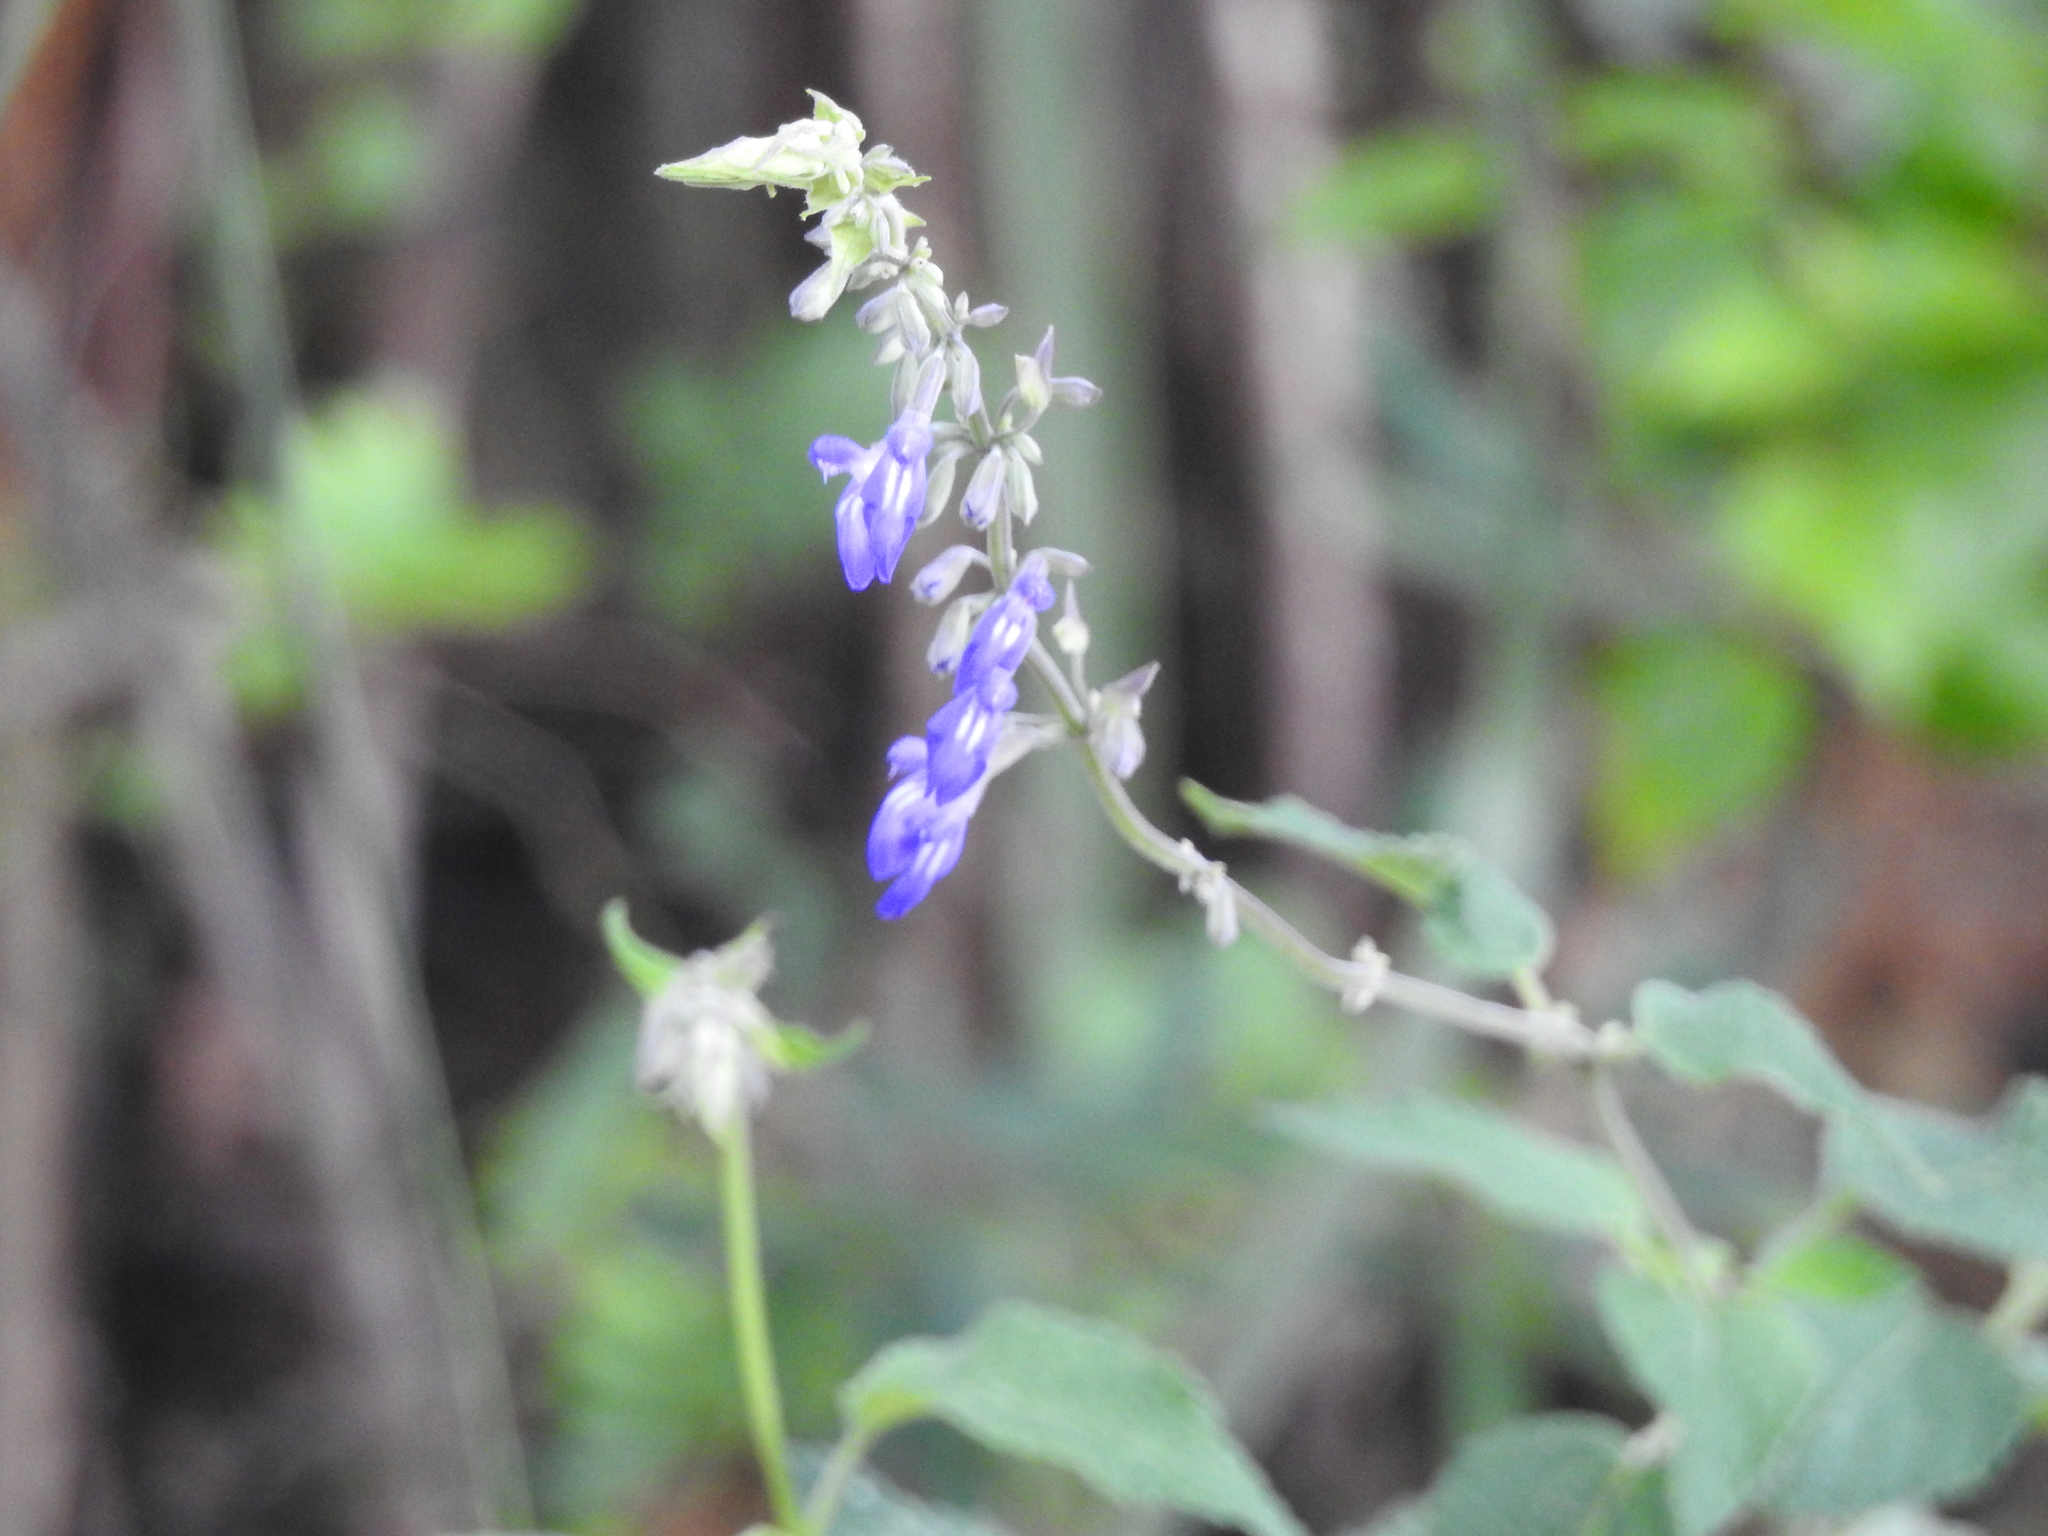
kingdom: Plantae
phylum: Tracheophyta
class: Magnoliopsida
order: Lamiales
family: Lamiaceae
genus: Salvia
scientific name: Salvia urolepis
